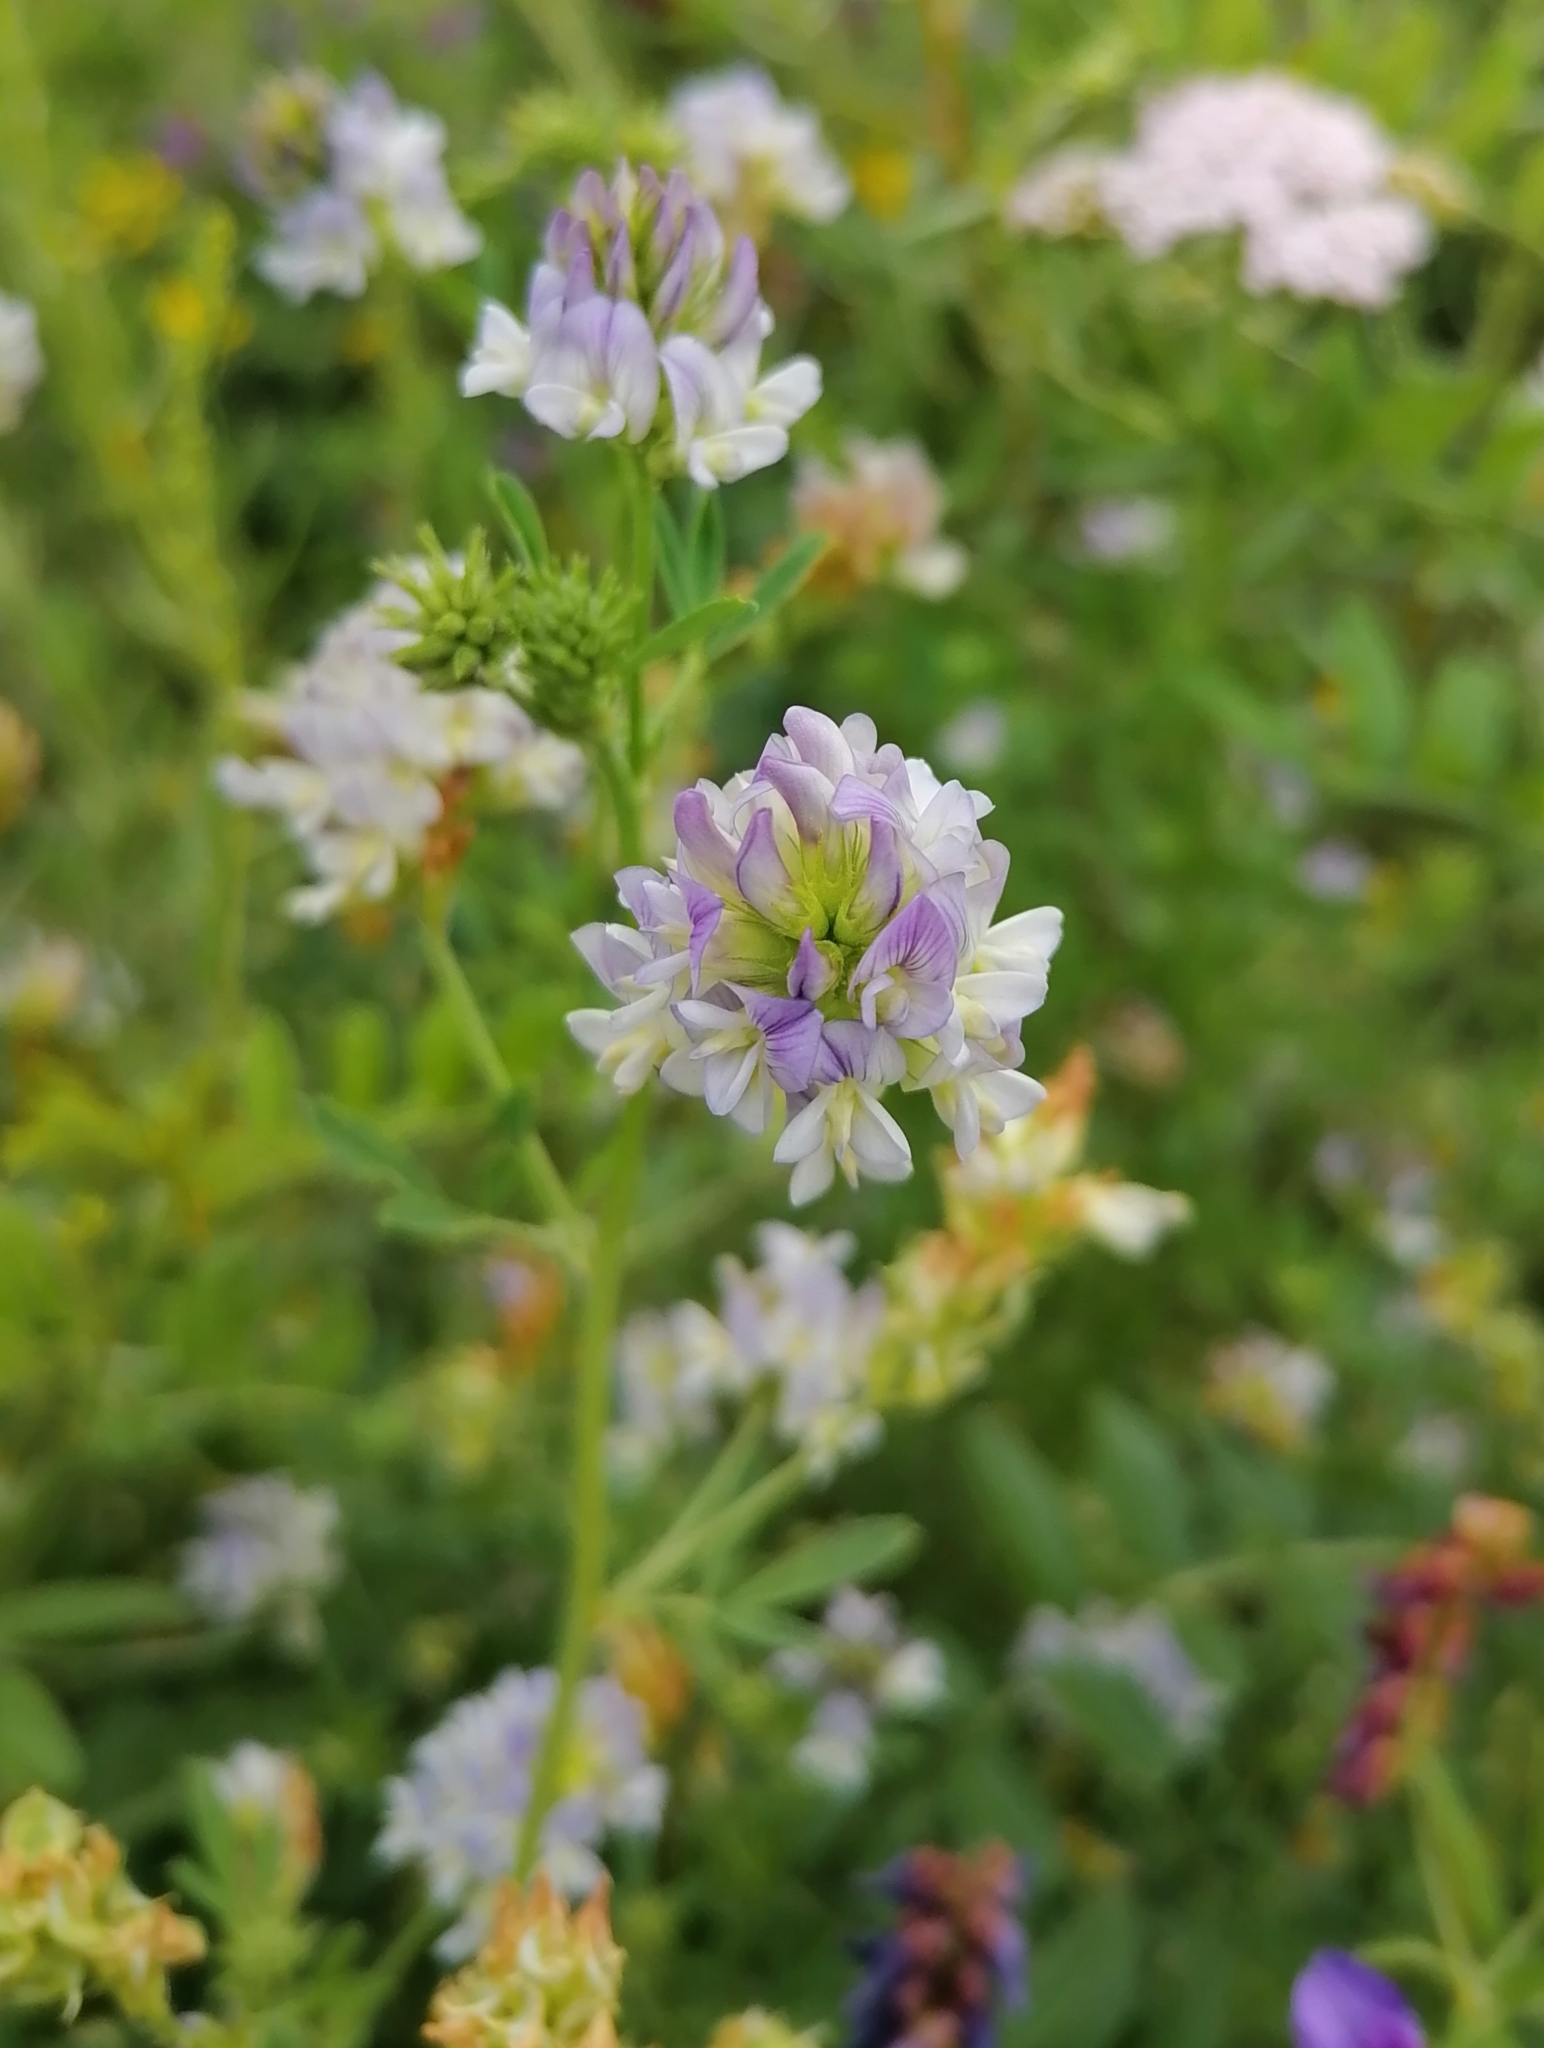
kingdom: Plantae
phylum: Tracheophyta
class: Magnoliopsida
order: Fabales
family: Fabaceae
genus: Medicago
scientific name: Medicago varia
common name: Sand lucerne
